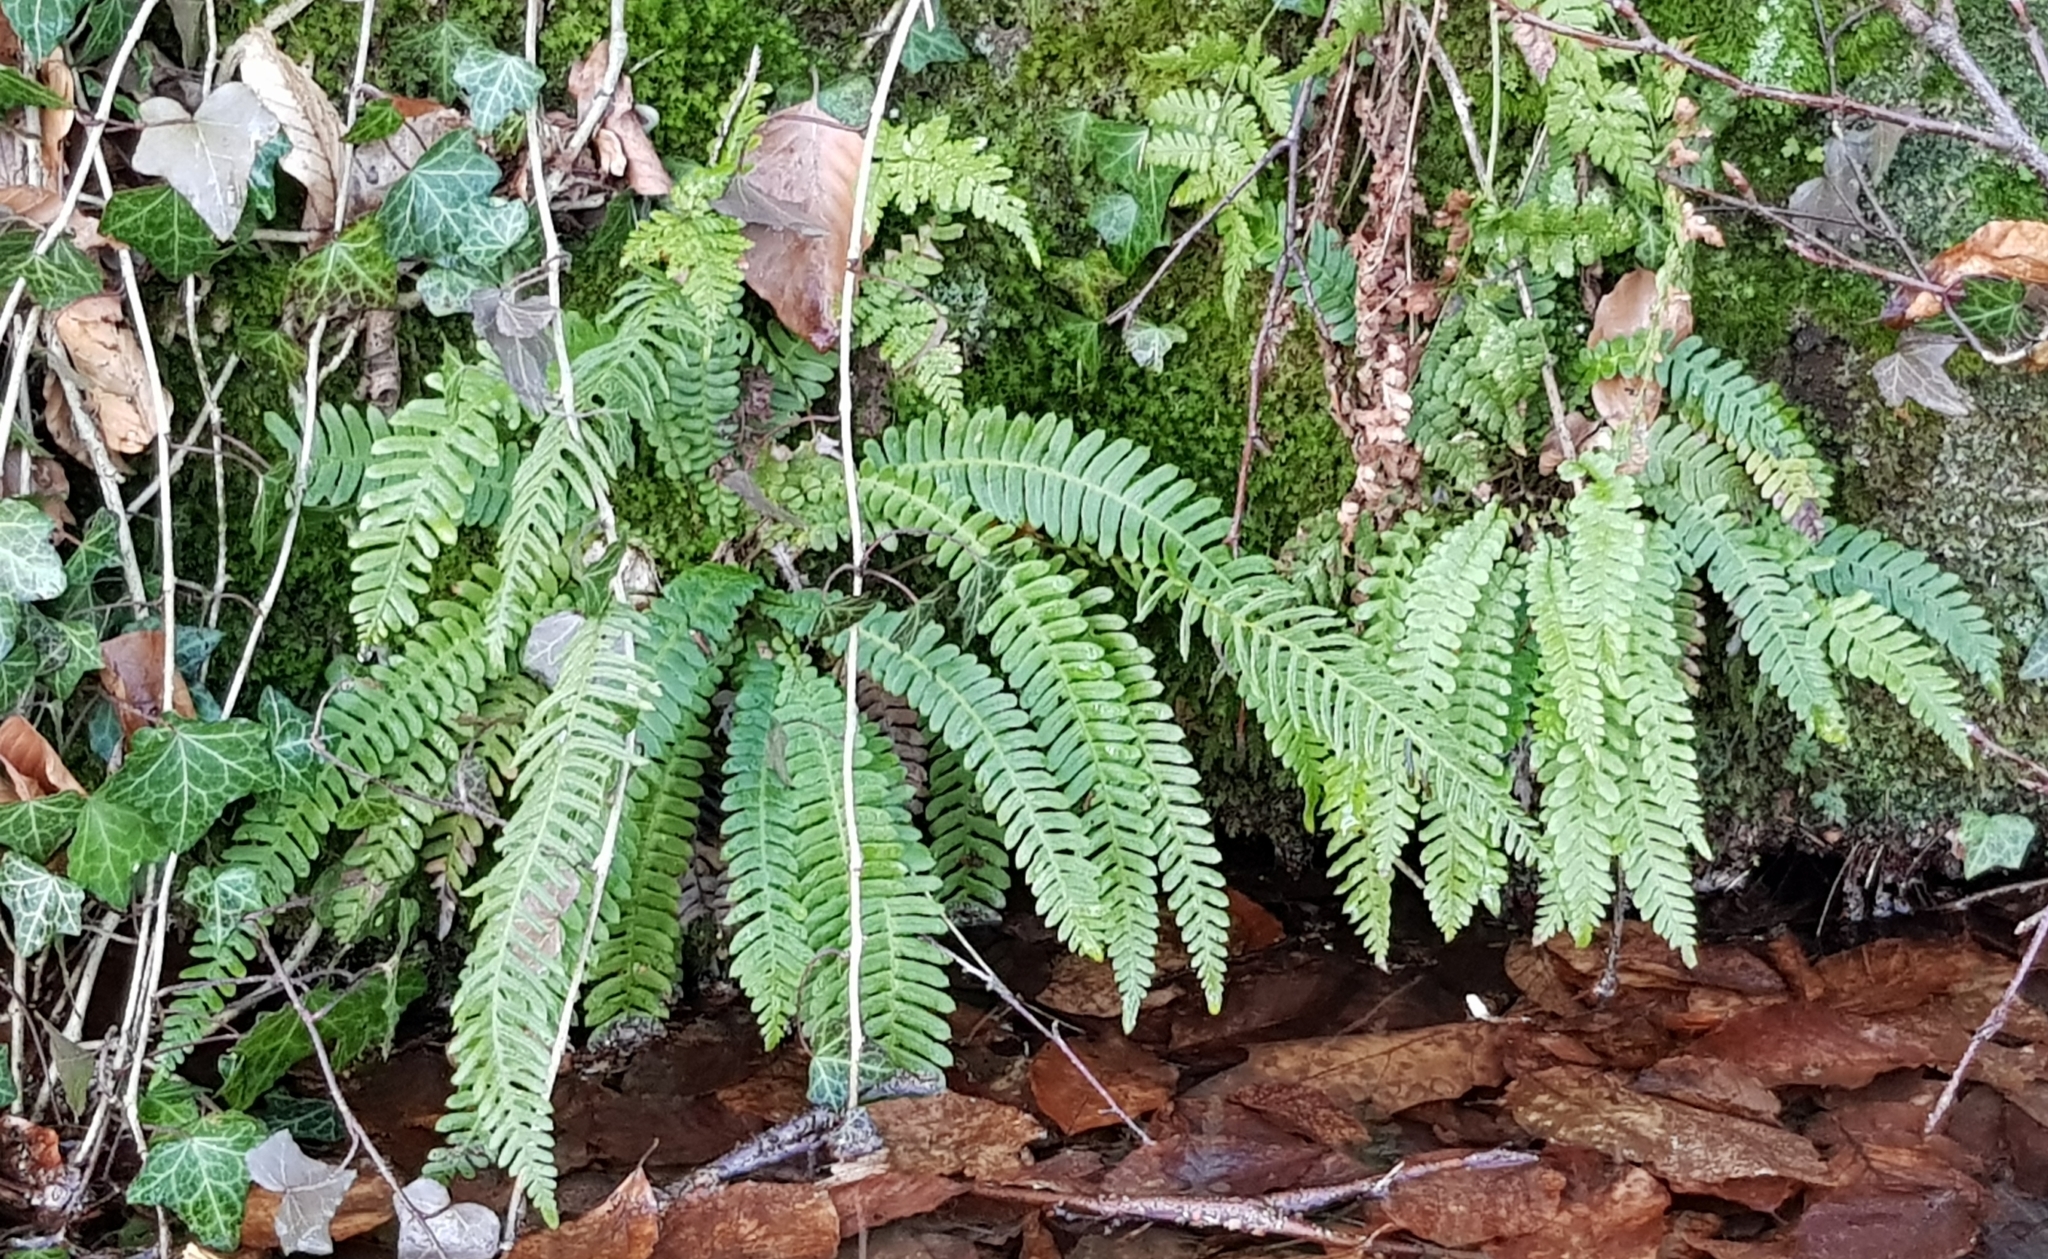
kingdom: Plantae
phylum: Tracheophyta
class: Polypodiopsida
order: Polypodiales
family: Blechnaceae
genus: Struthiopteris
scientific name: Struthiopteris spicant
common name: Deer fern
